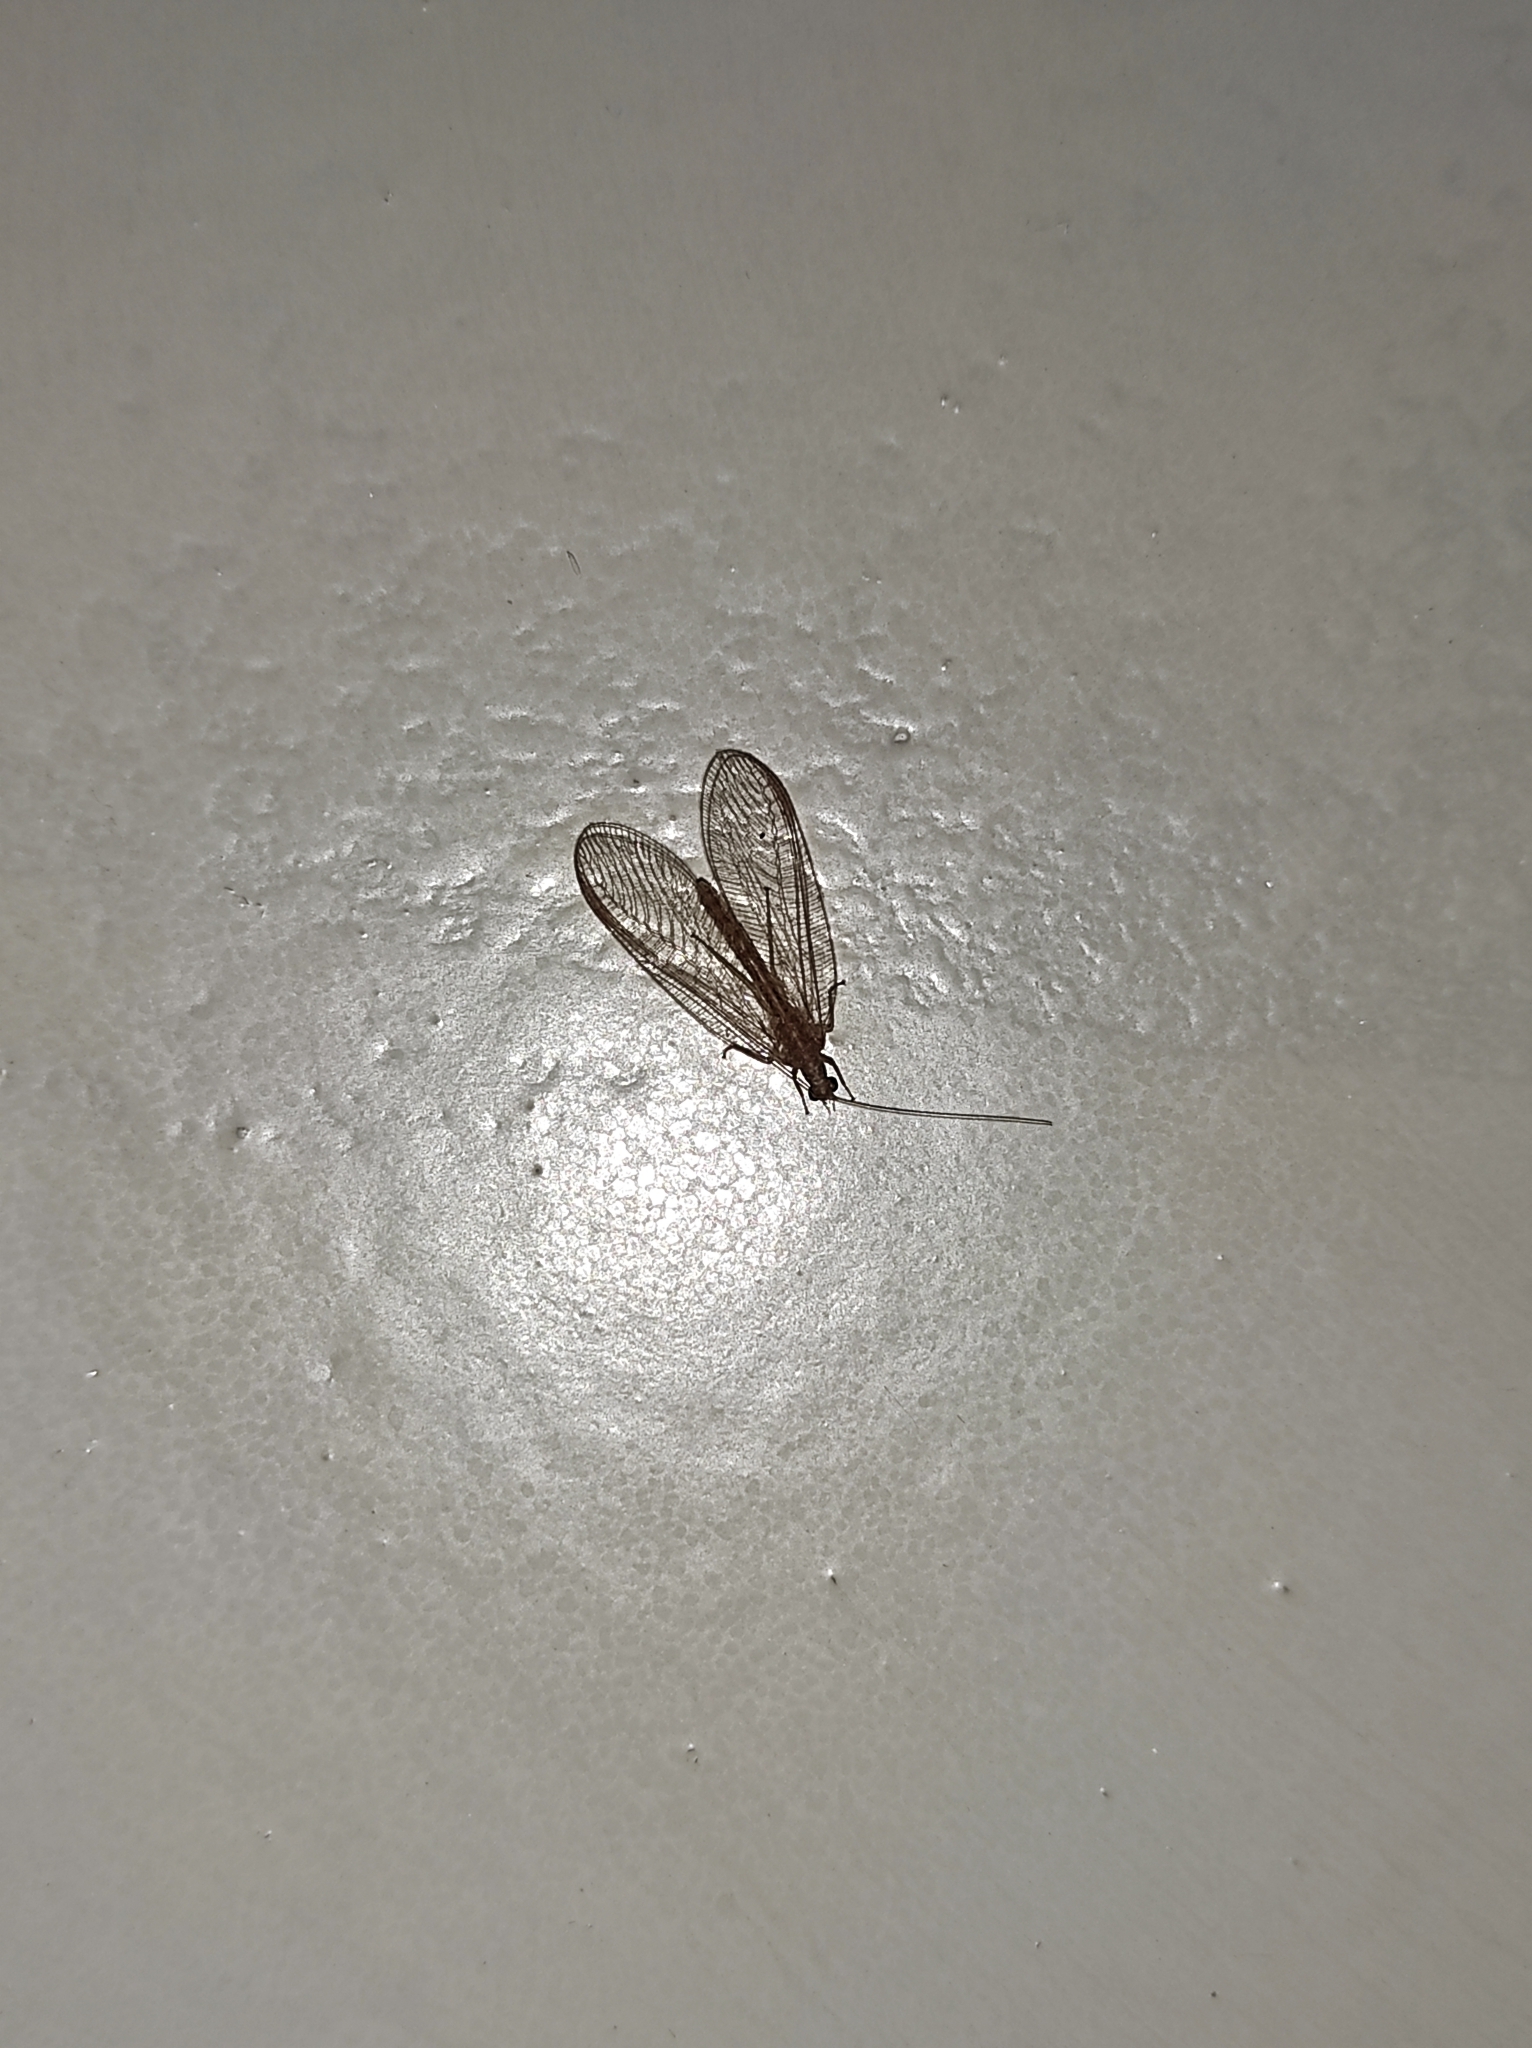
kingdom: Animalia
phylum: Arthropoda
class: Insecta
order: Neuroptera
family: Chrysopidae
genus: Chrysoperla
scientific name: Chrysoperla
